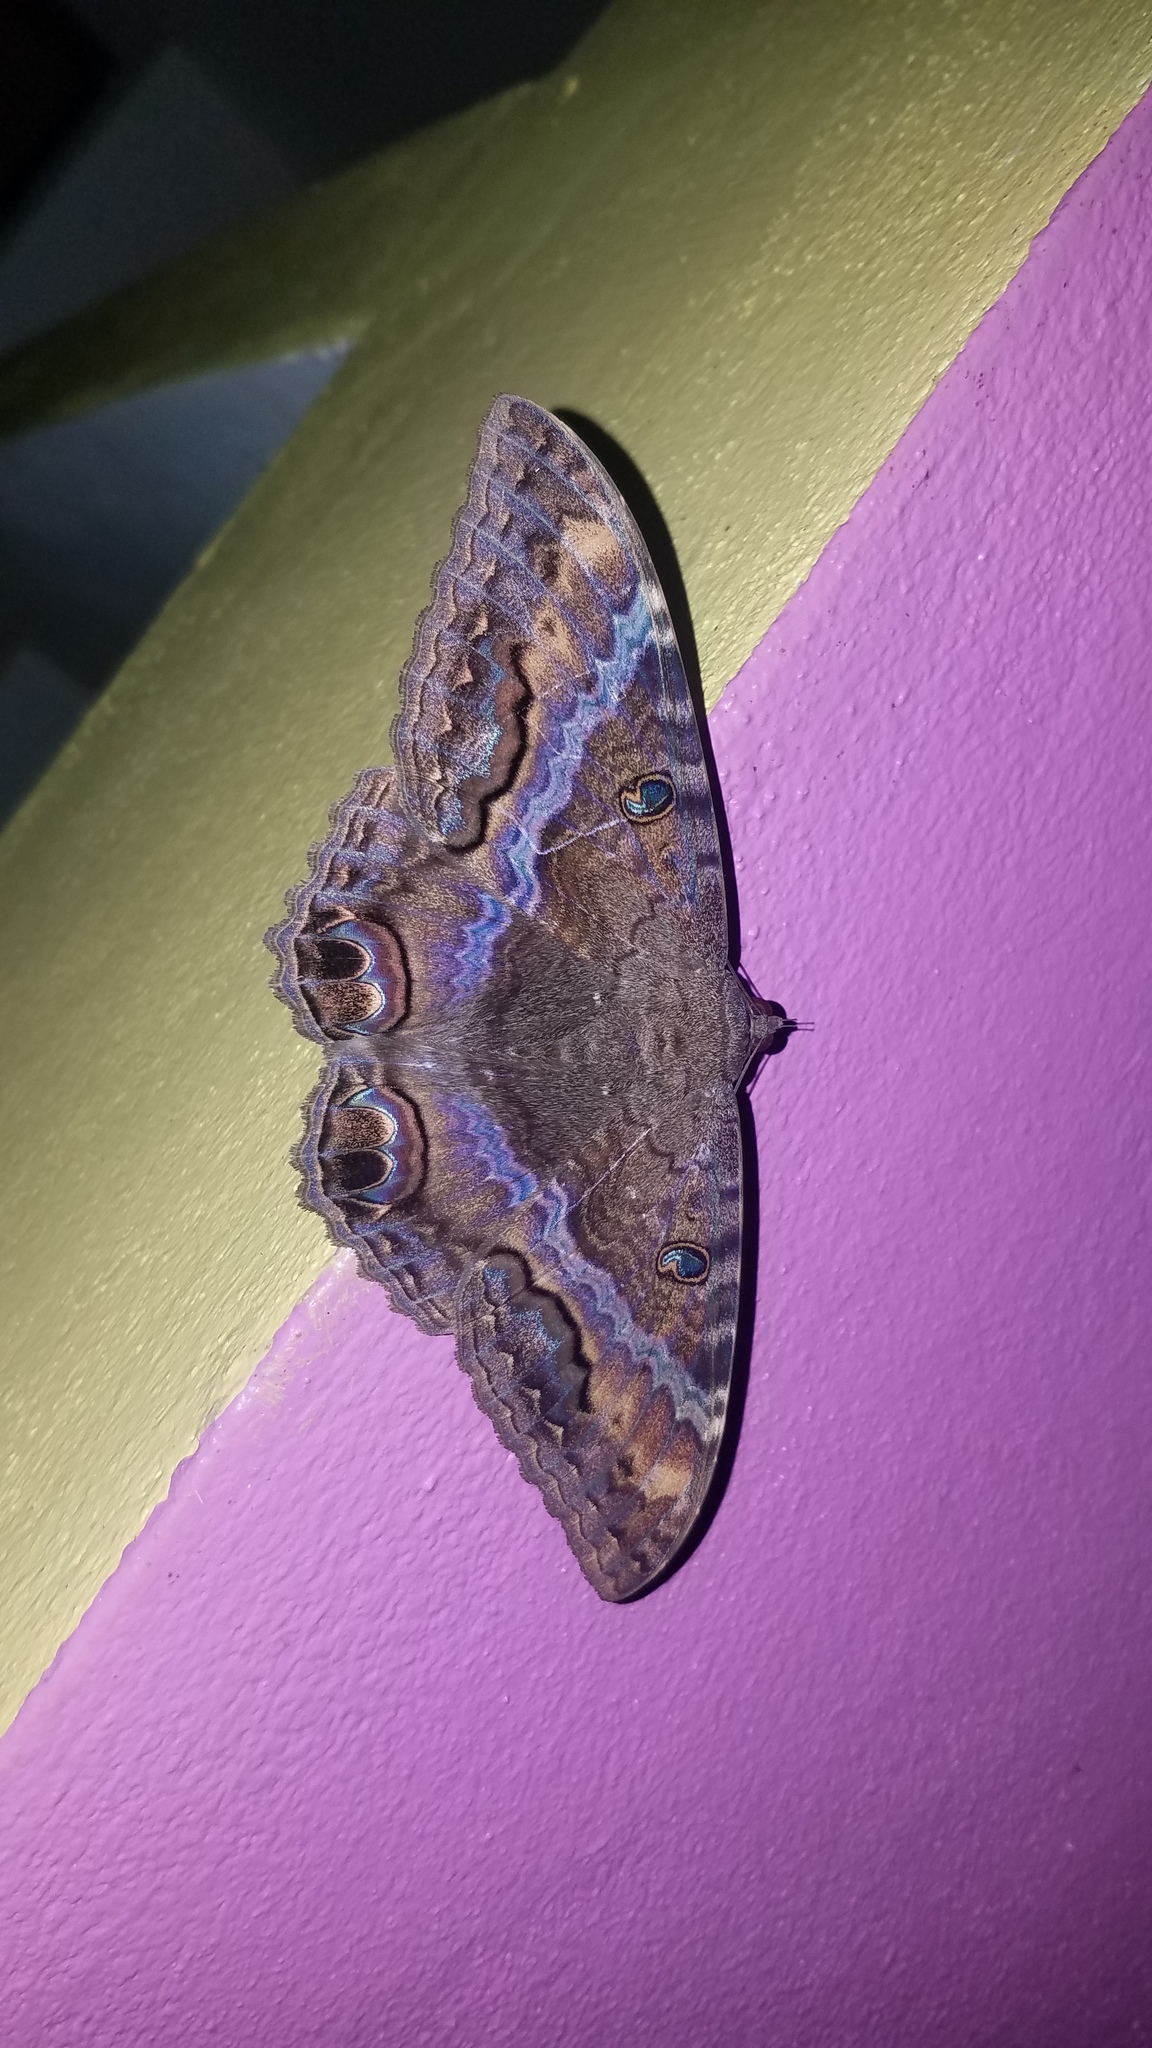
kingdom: Animalia
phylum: Arthropoda
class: Insecta
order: Lepidoptera
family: Erebidae
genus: Ascalapha
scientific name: Ascalapha odorata
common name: Black witch
